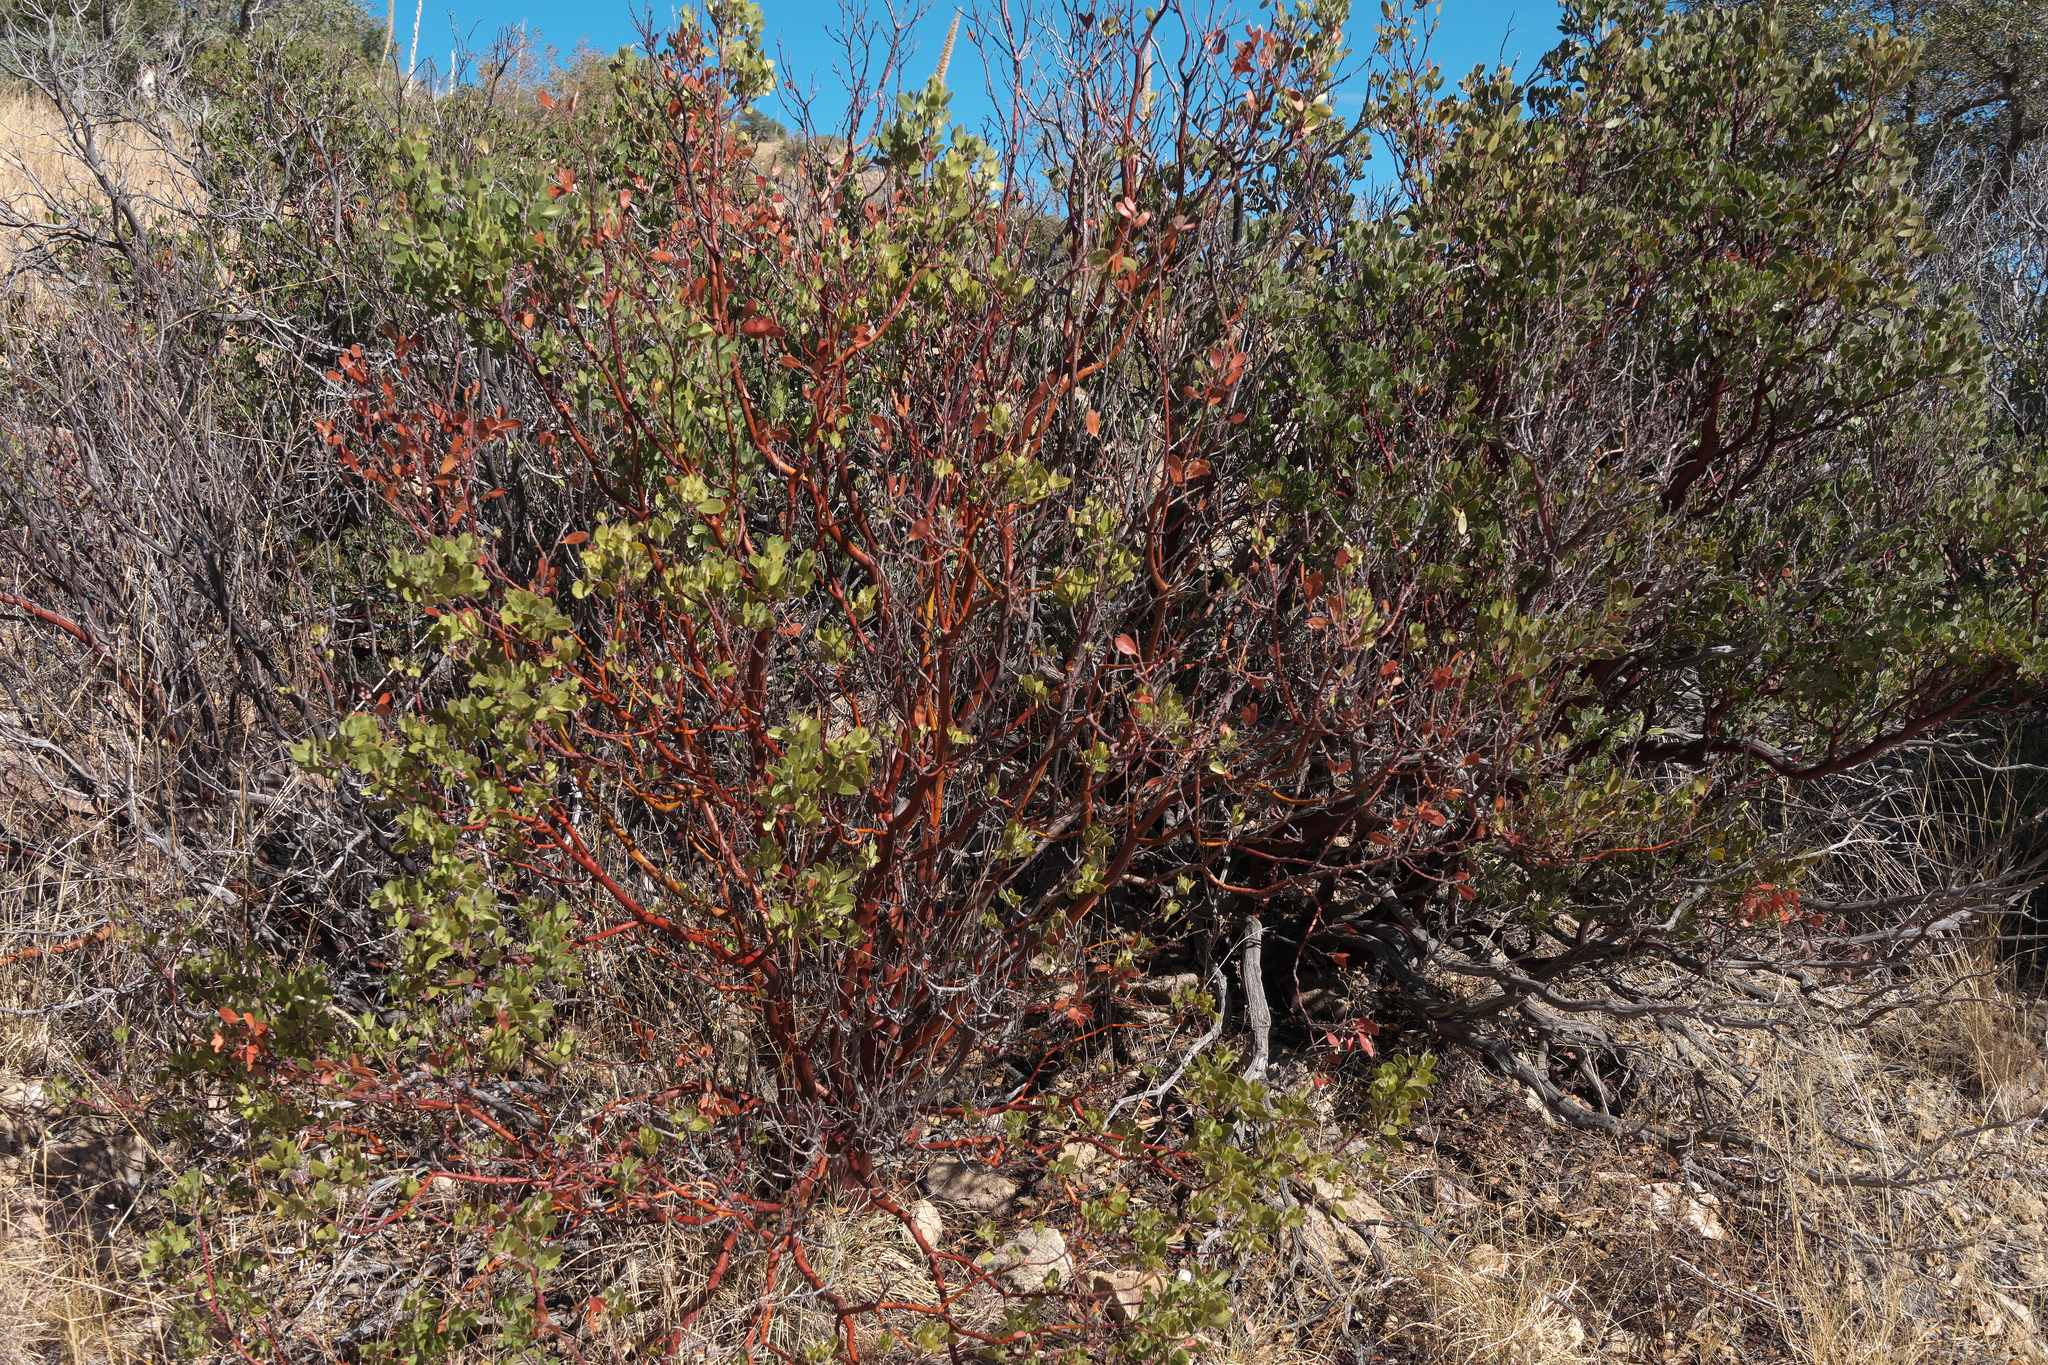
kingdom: Plantae
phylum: Tracheophyta
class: Magnoliopsida
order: Ericales
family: Ericaceae
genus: Arctostaphylos
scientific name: Arctostaphylos pungens
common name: Mexican manzanita
